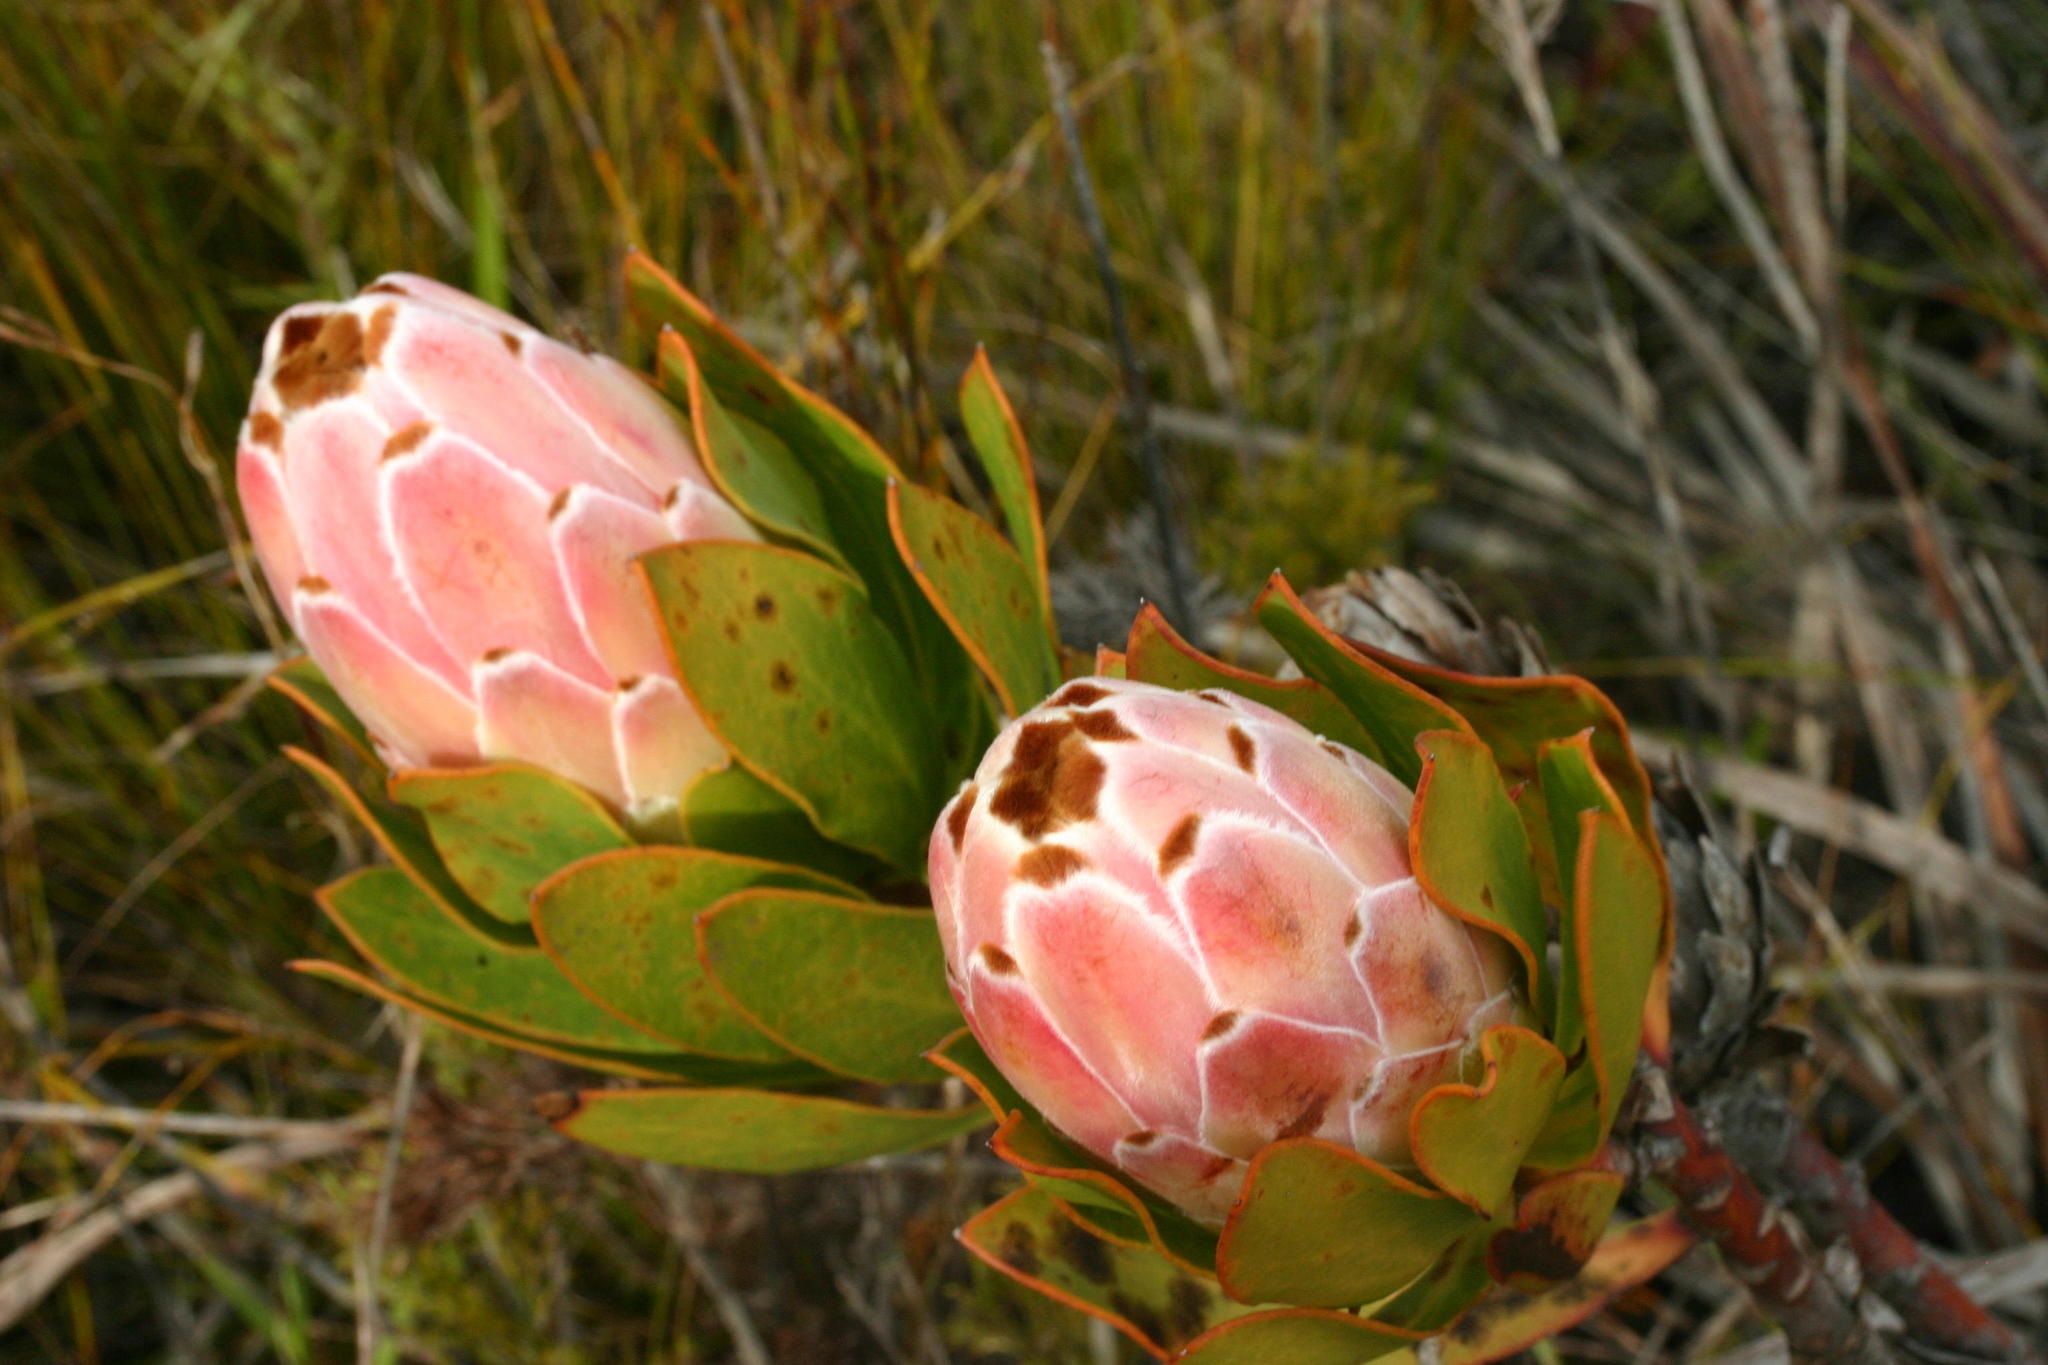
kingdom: Plantae
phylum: Tracheophyta
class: Magnoliopsida
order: Proteales
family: Proteaceae
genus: Protea
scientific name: Protea speciosa
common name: Brown-beard sugarbush
